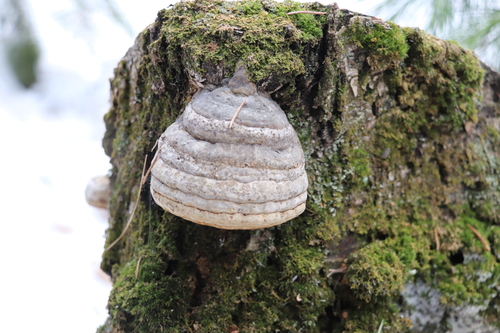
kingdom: Fungi
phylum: Basidiomycota
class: Agaricomycetes
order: Polyporales
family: Polyporaceae
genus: Fomes
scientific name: Fomes fomentarius
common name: Hoof fungus
